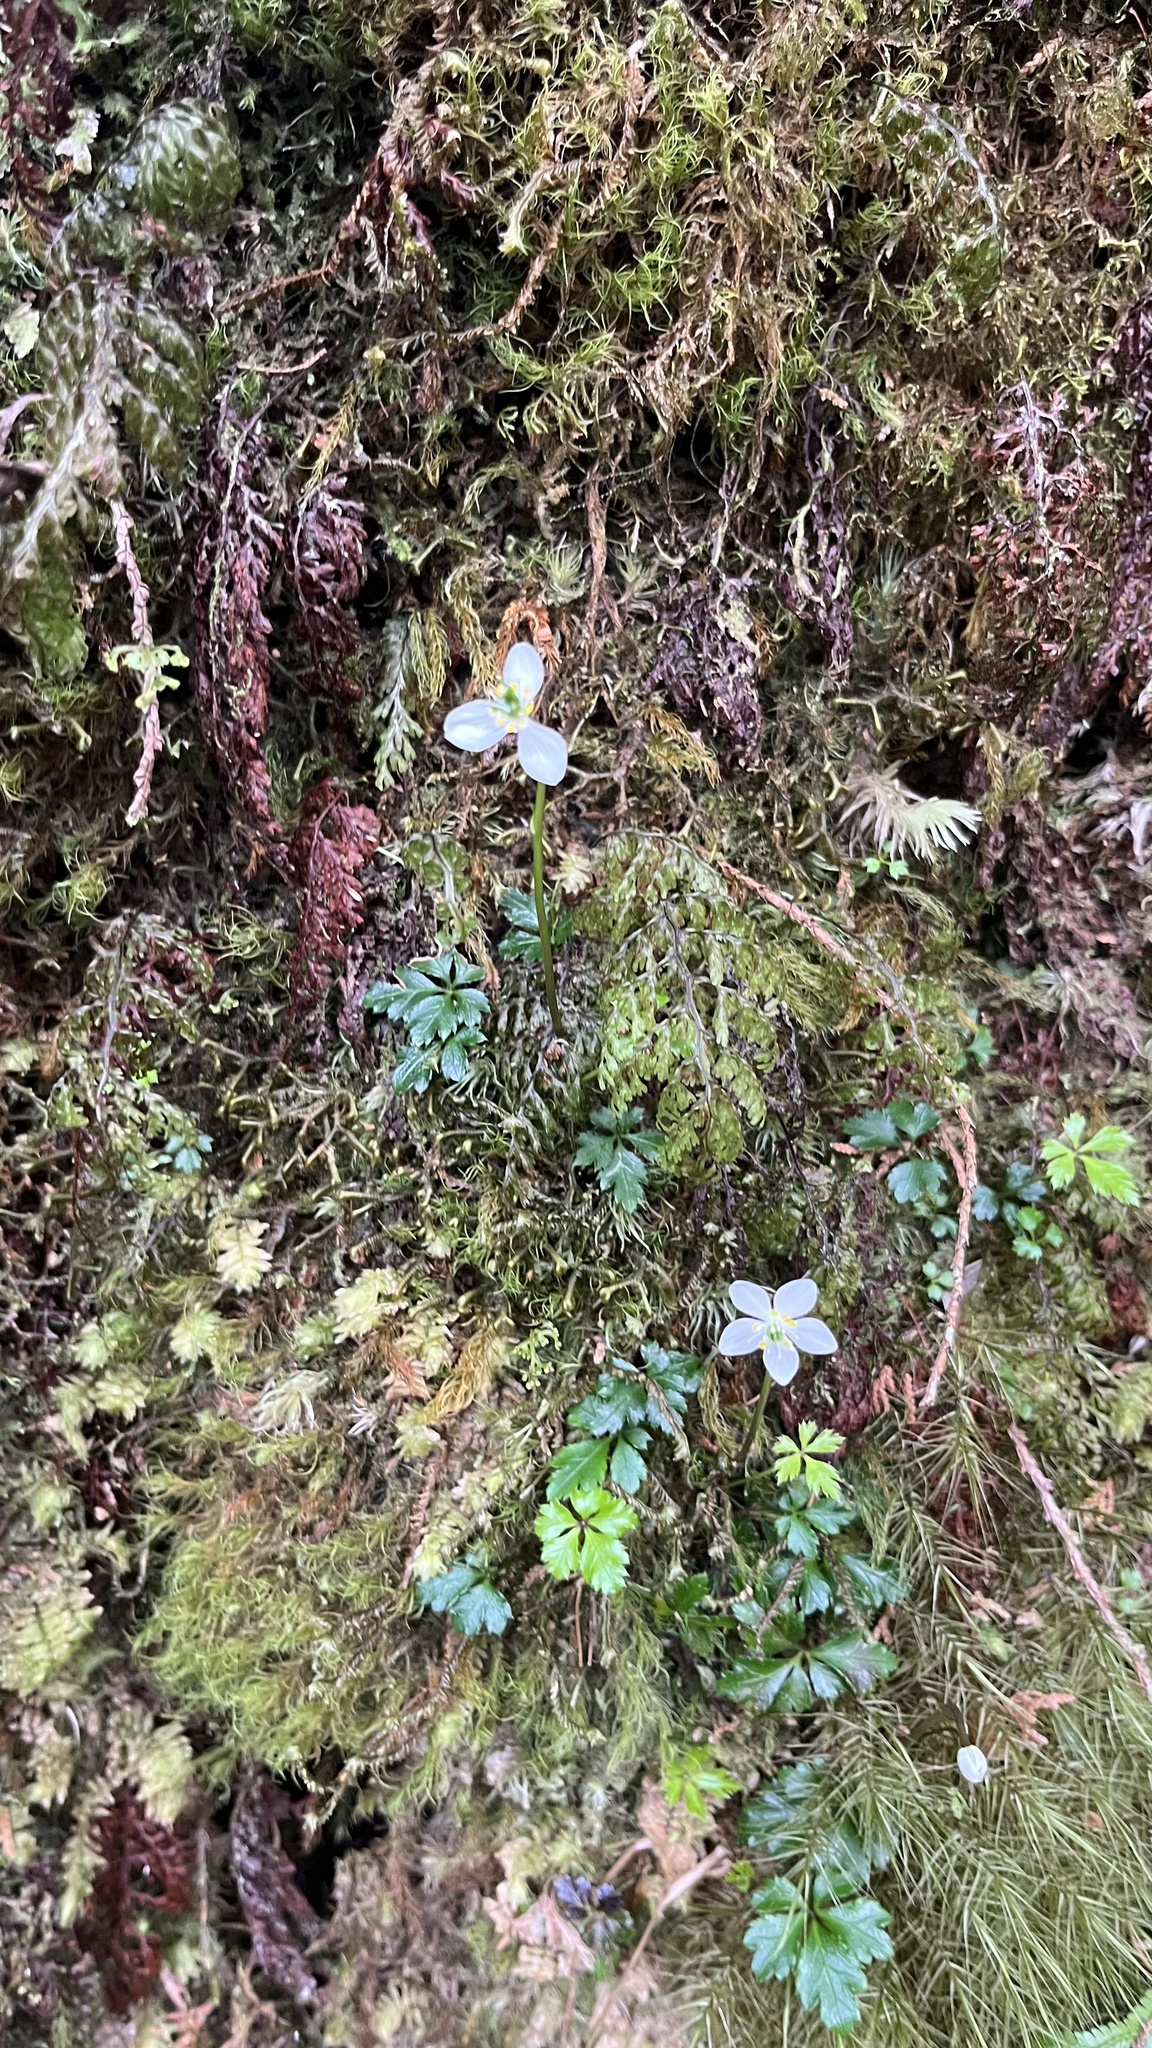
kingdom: Plantae
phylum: Tracheophyta
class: Magnoliopsida
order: Ranunculales
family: Ranunculaceae
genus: Coptis
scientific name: Coptis quinquefolia
